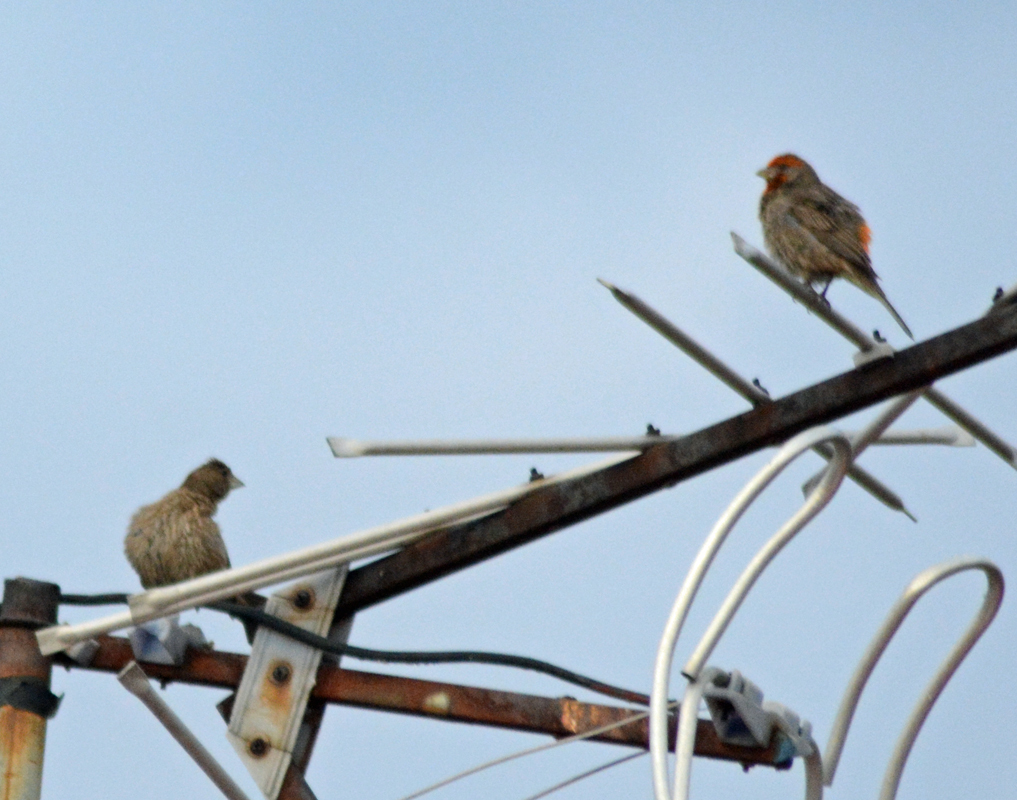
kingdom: Animalia
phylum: Chordata
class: Aves
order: Passeriformes
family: Fringillidae
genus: Haemorhous
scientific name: Haemorhous mexicanus
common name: House finch
